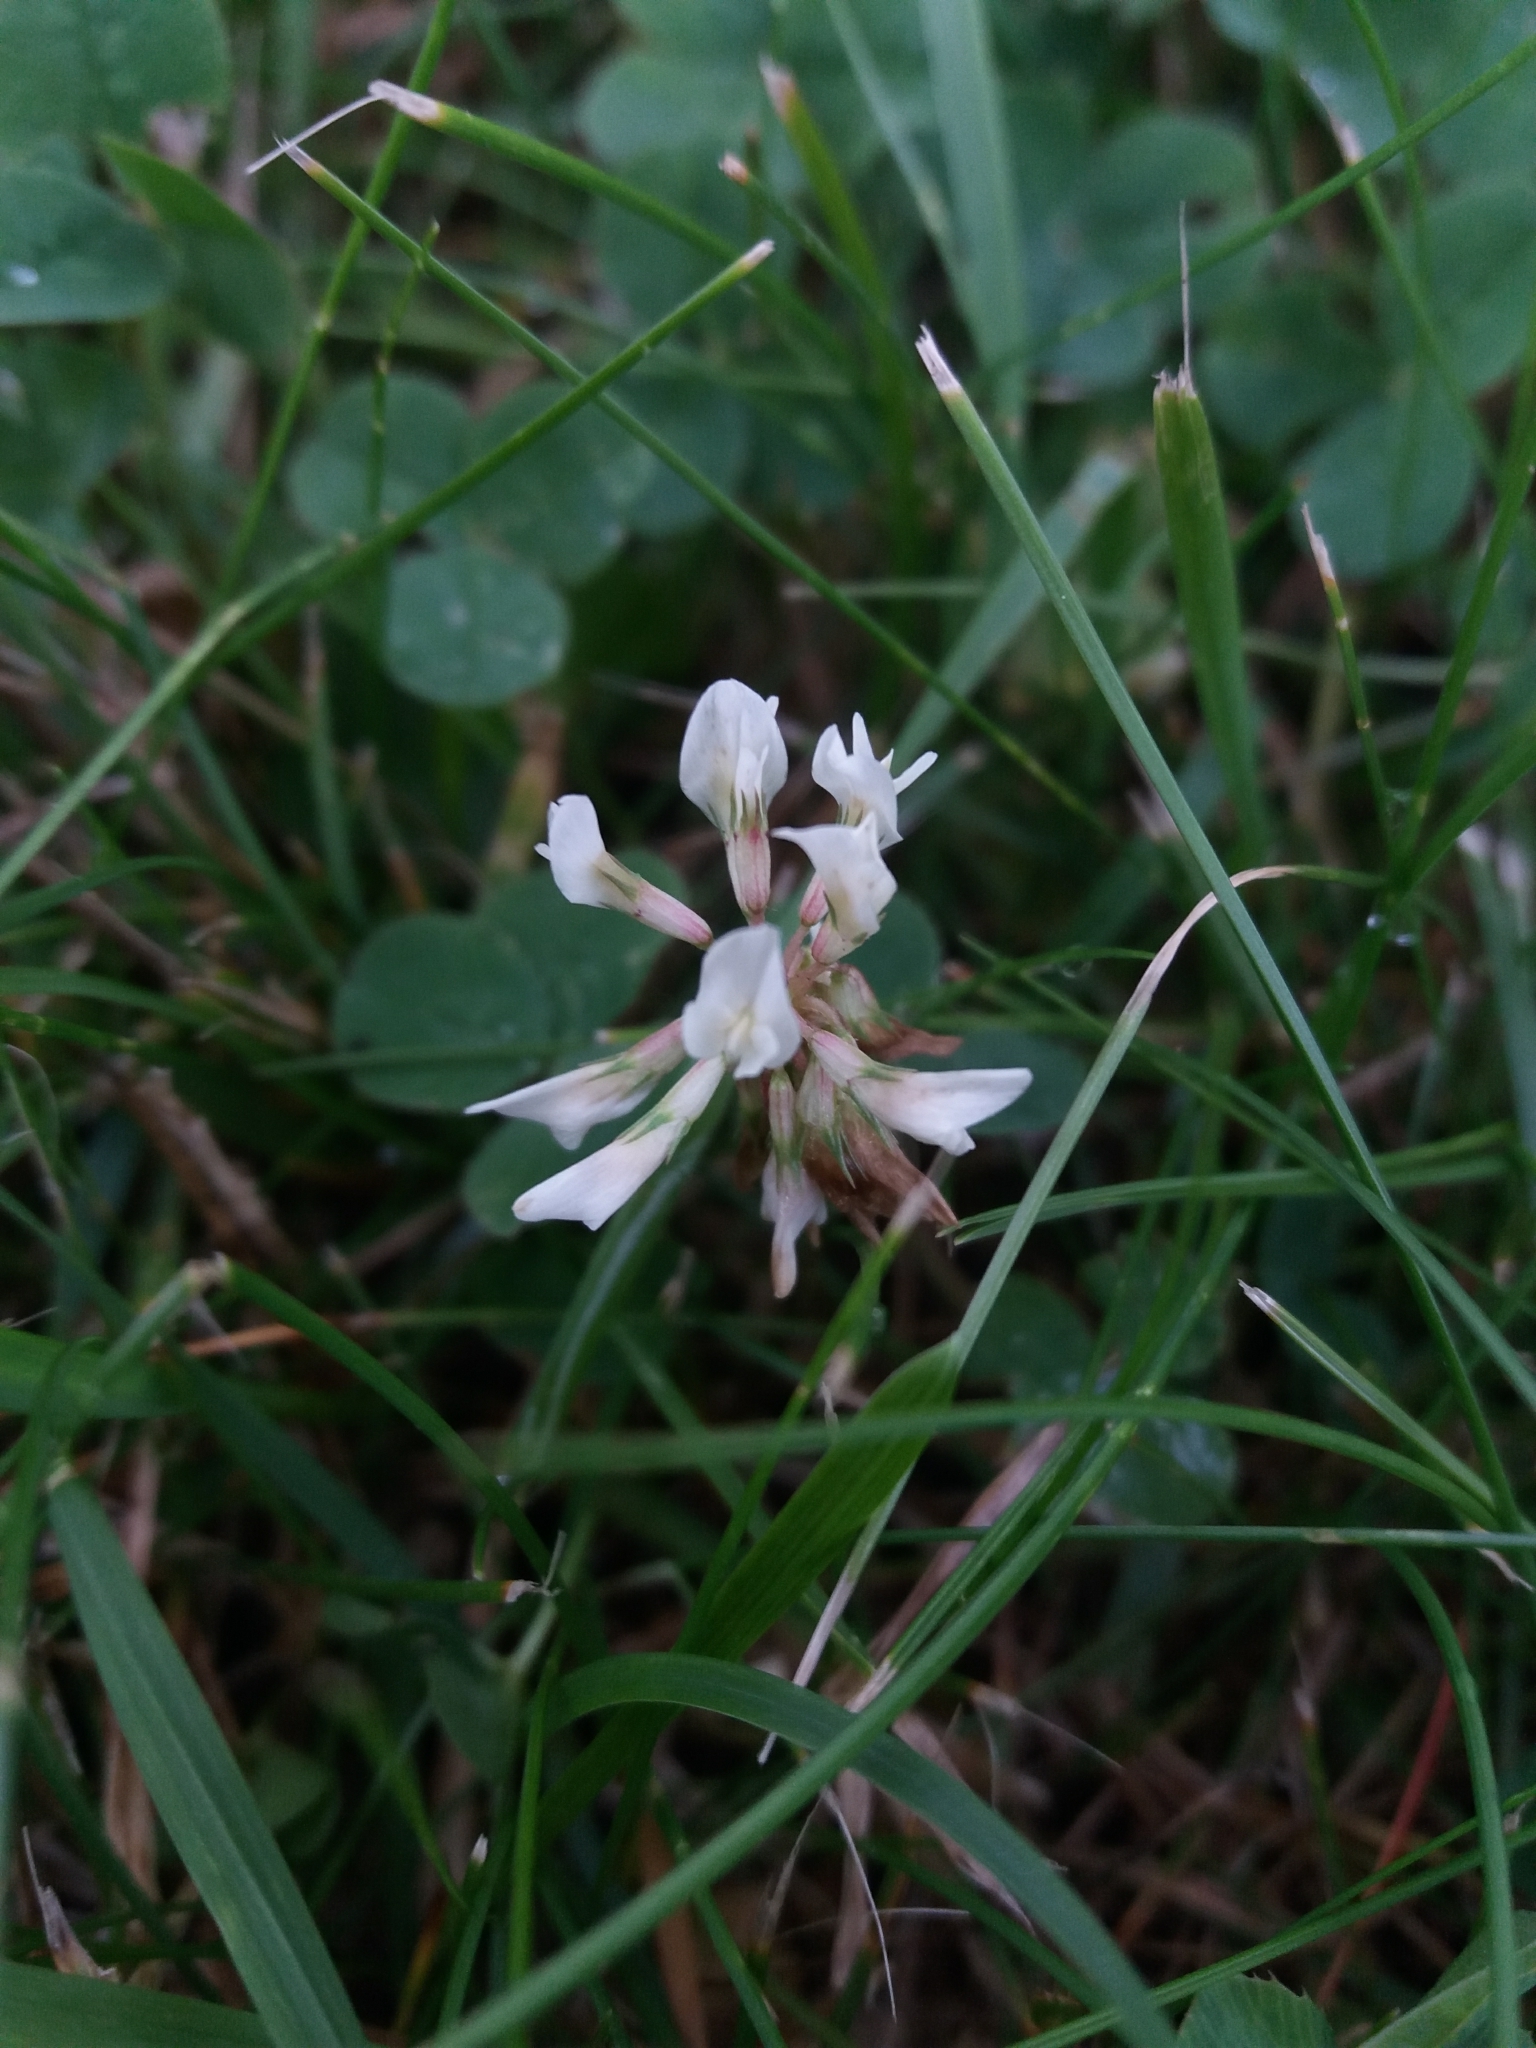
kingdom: Plantae
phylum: Tracheophyta
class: Magnoliopsida
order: Fabales
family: Fabaceae
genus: Trifolium
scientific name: Trifolium repens
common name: White clover
